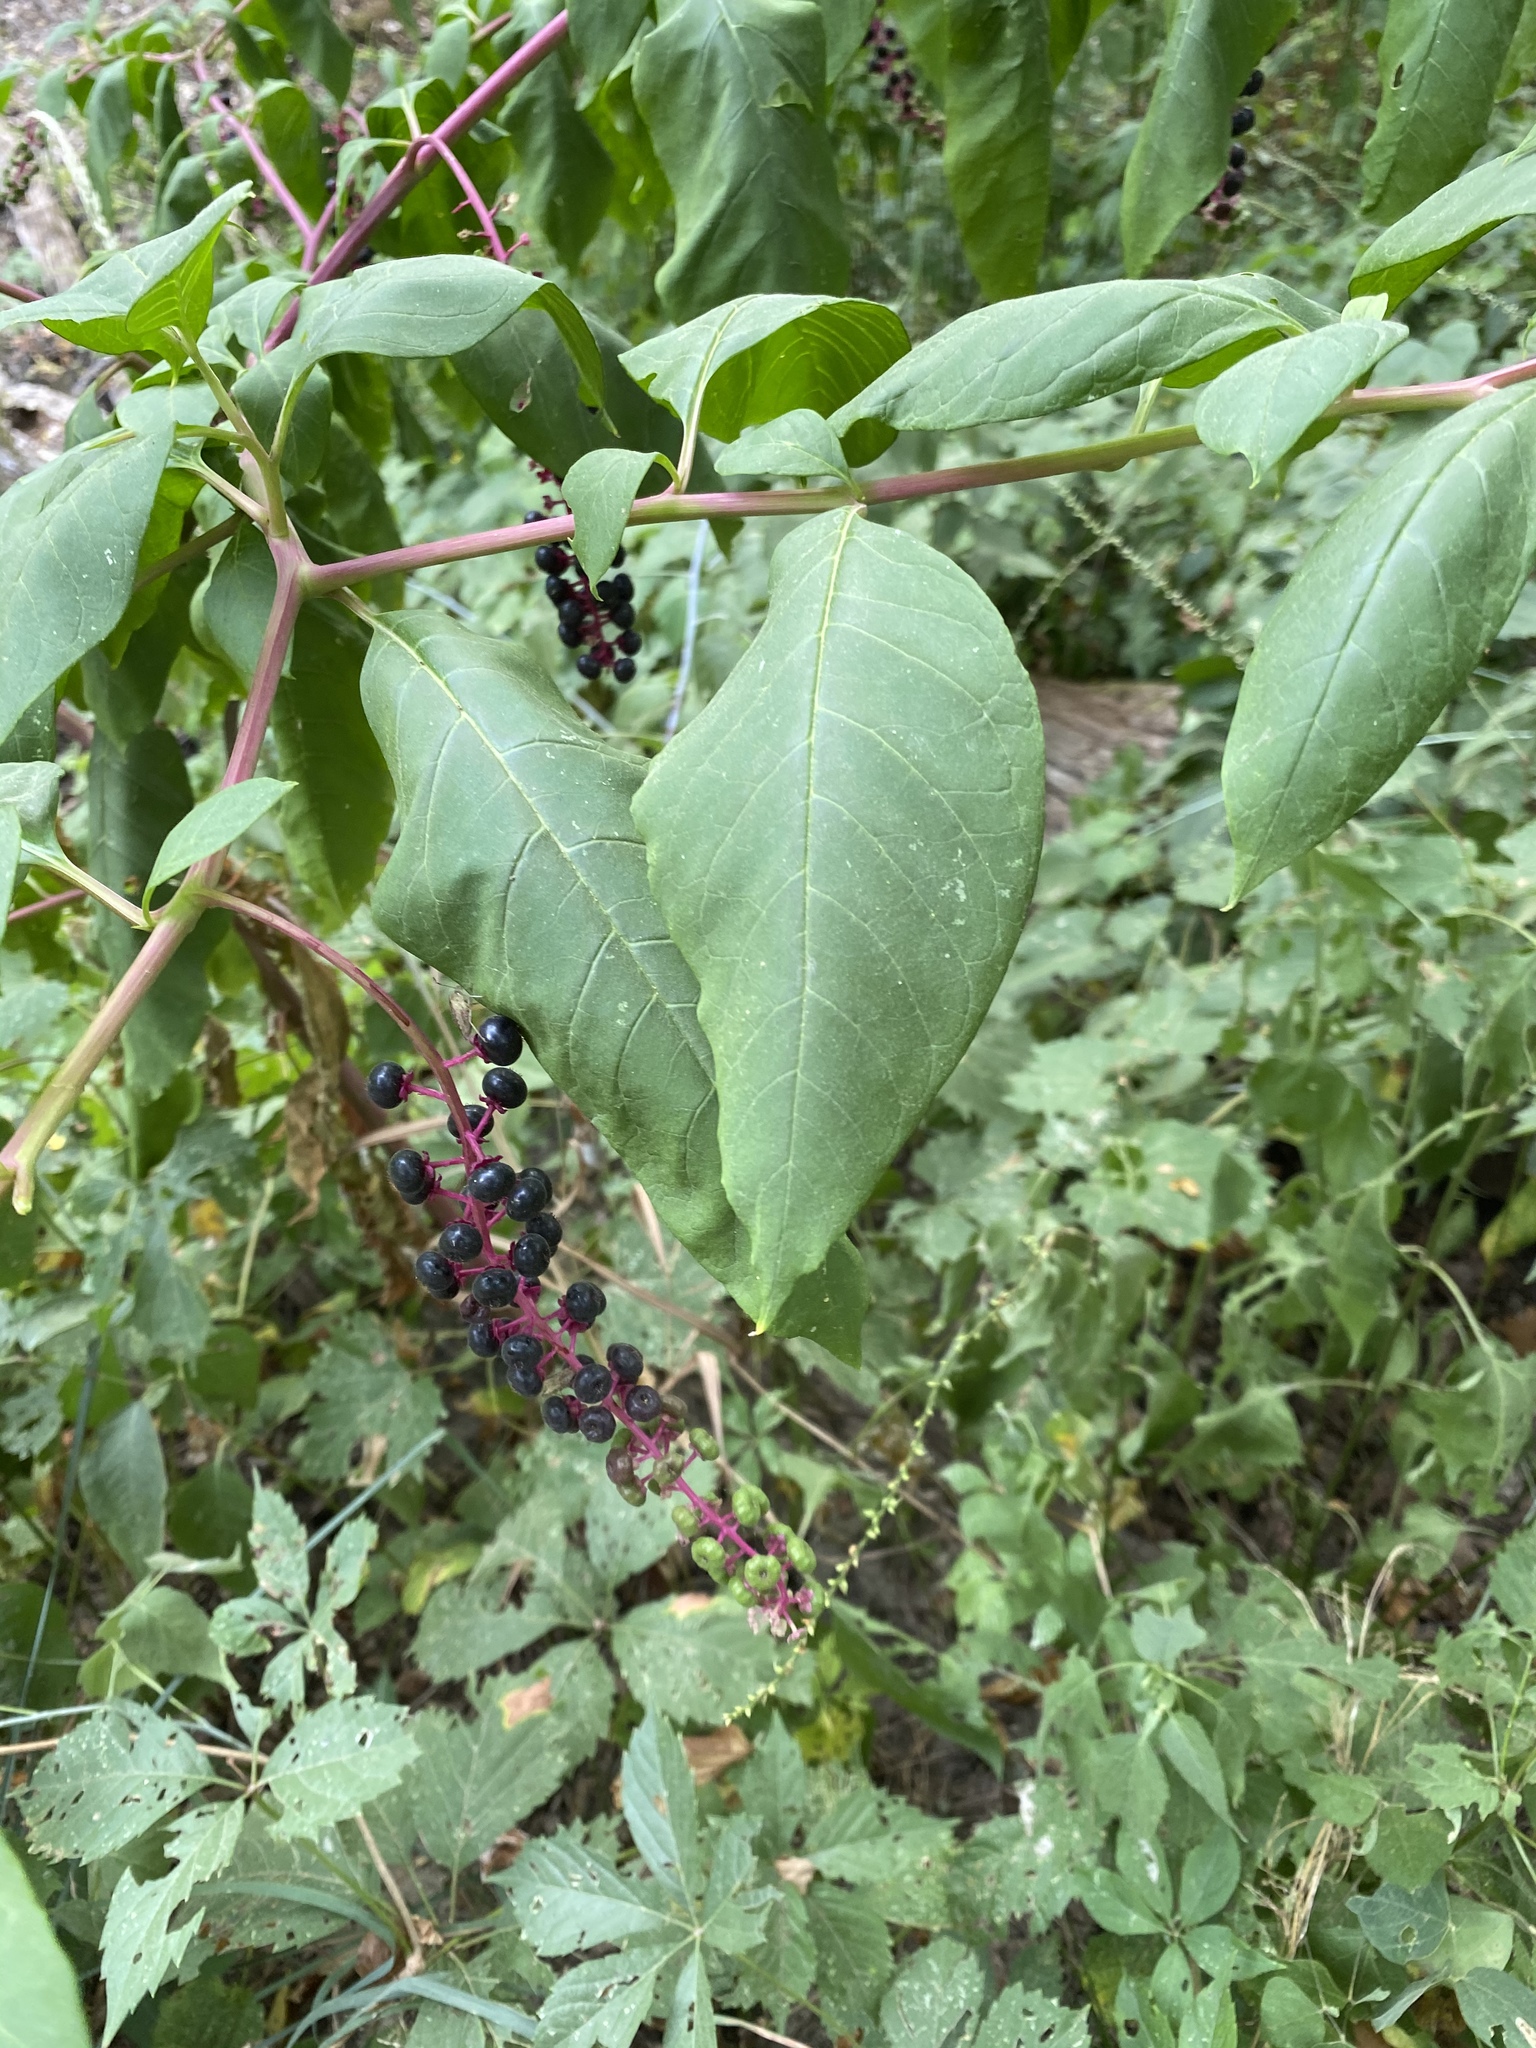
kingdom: Plantae
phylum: Tracheophyta
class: Magnoliopsida
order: Caryophyllales
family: Phytolaccaceae
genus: Phytolacca
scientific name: Phytolacca americana
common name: American pokeweed
